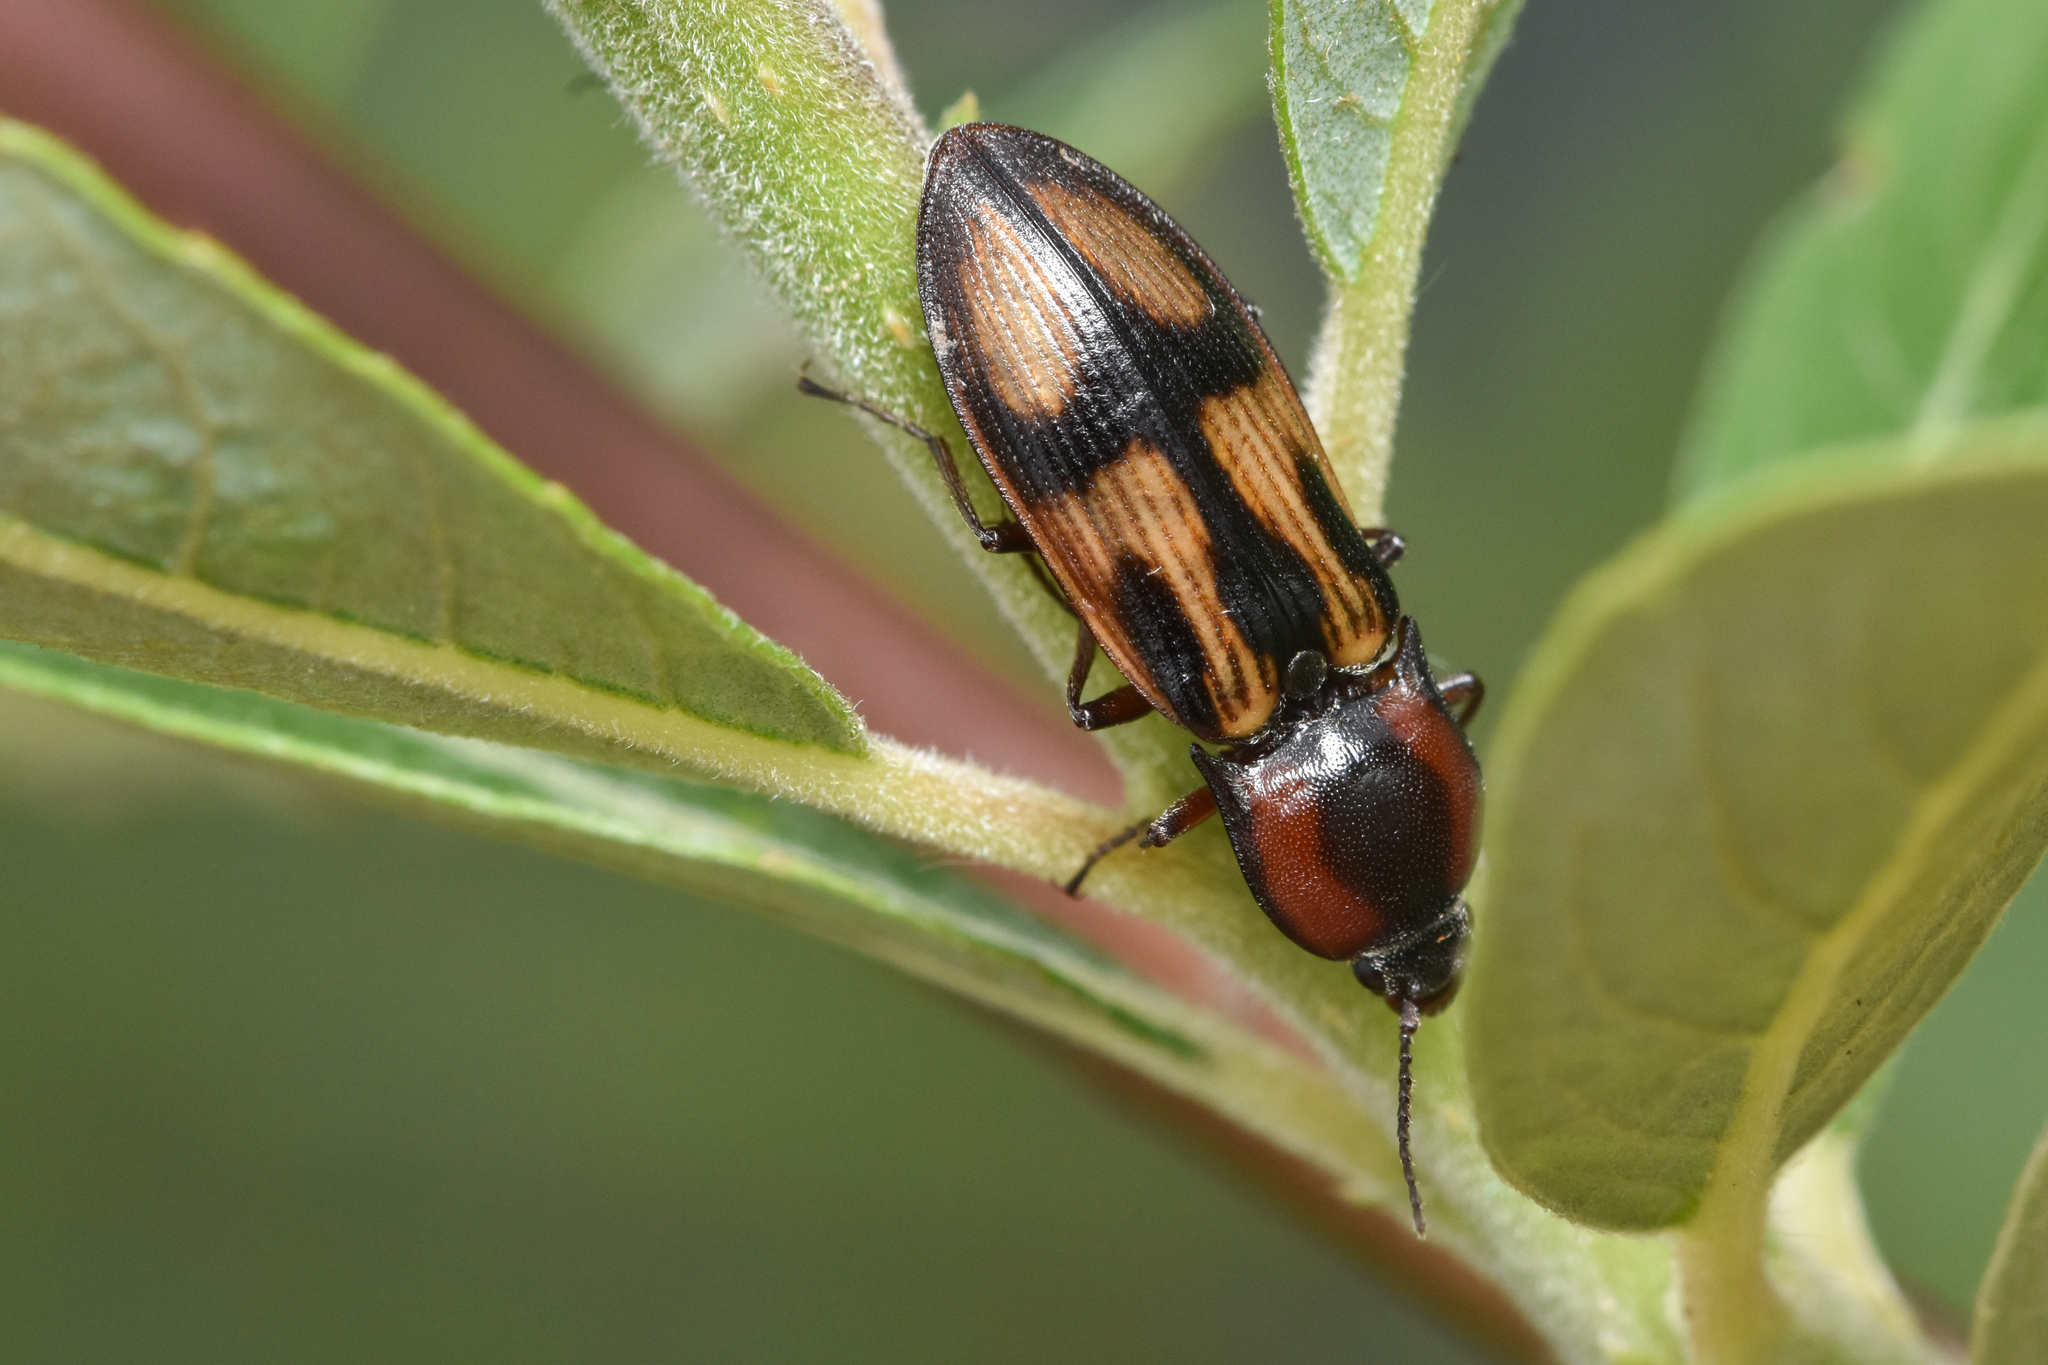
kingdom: Animalia
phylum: Arthropoda
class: Insecta
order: Coleoptera
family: Elateridae
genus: Selatosomus
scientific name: Selatosomus festivus
